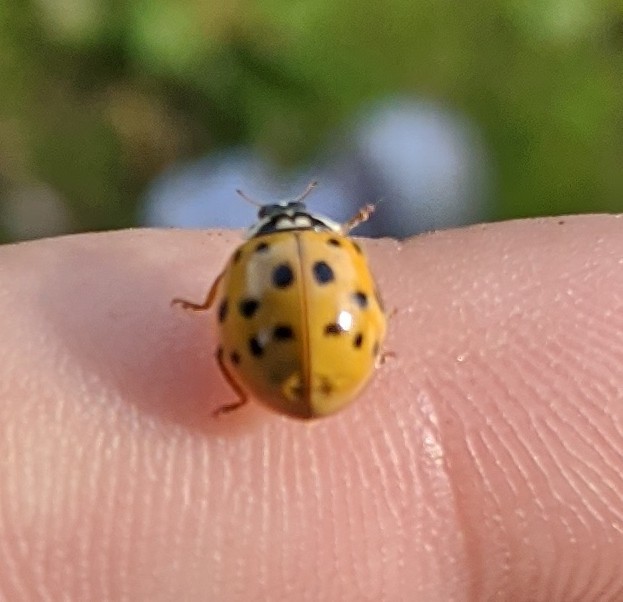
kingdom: Animalia
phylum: Arthropoda
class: Insecta
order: Coleoptera
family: Coccinellidae
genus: Harmonia
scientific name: Harmonia axyridis
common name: Harlequin ladybird
